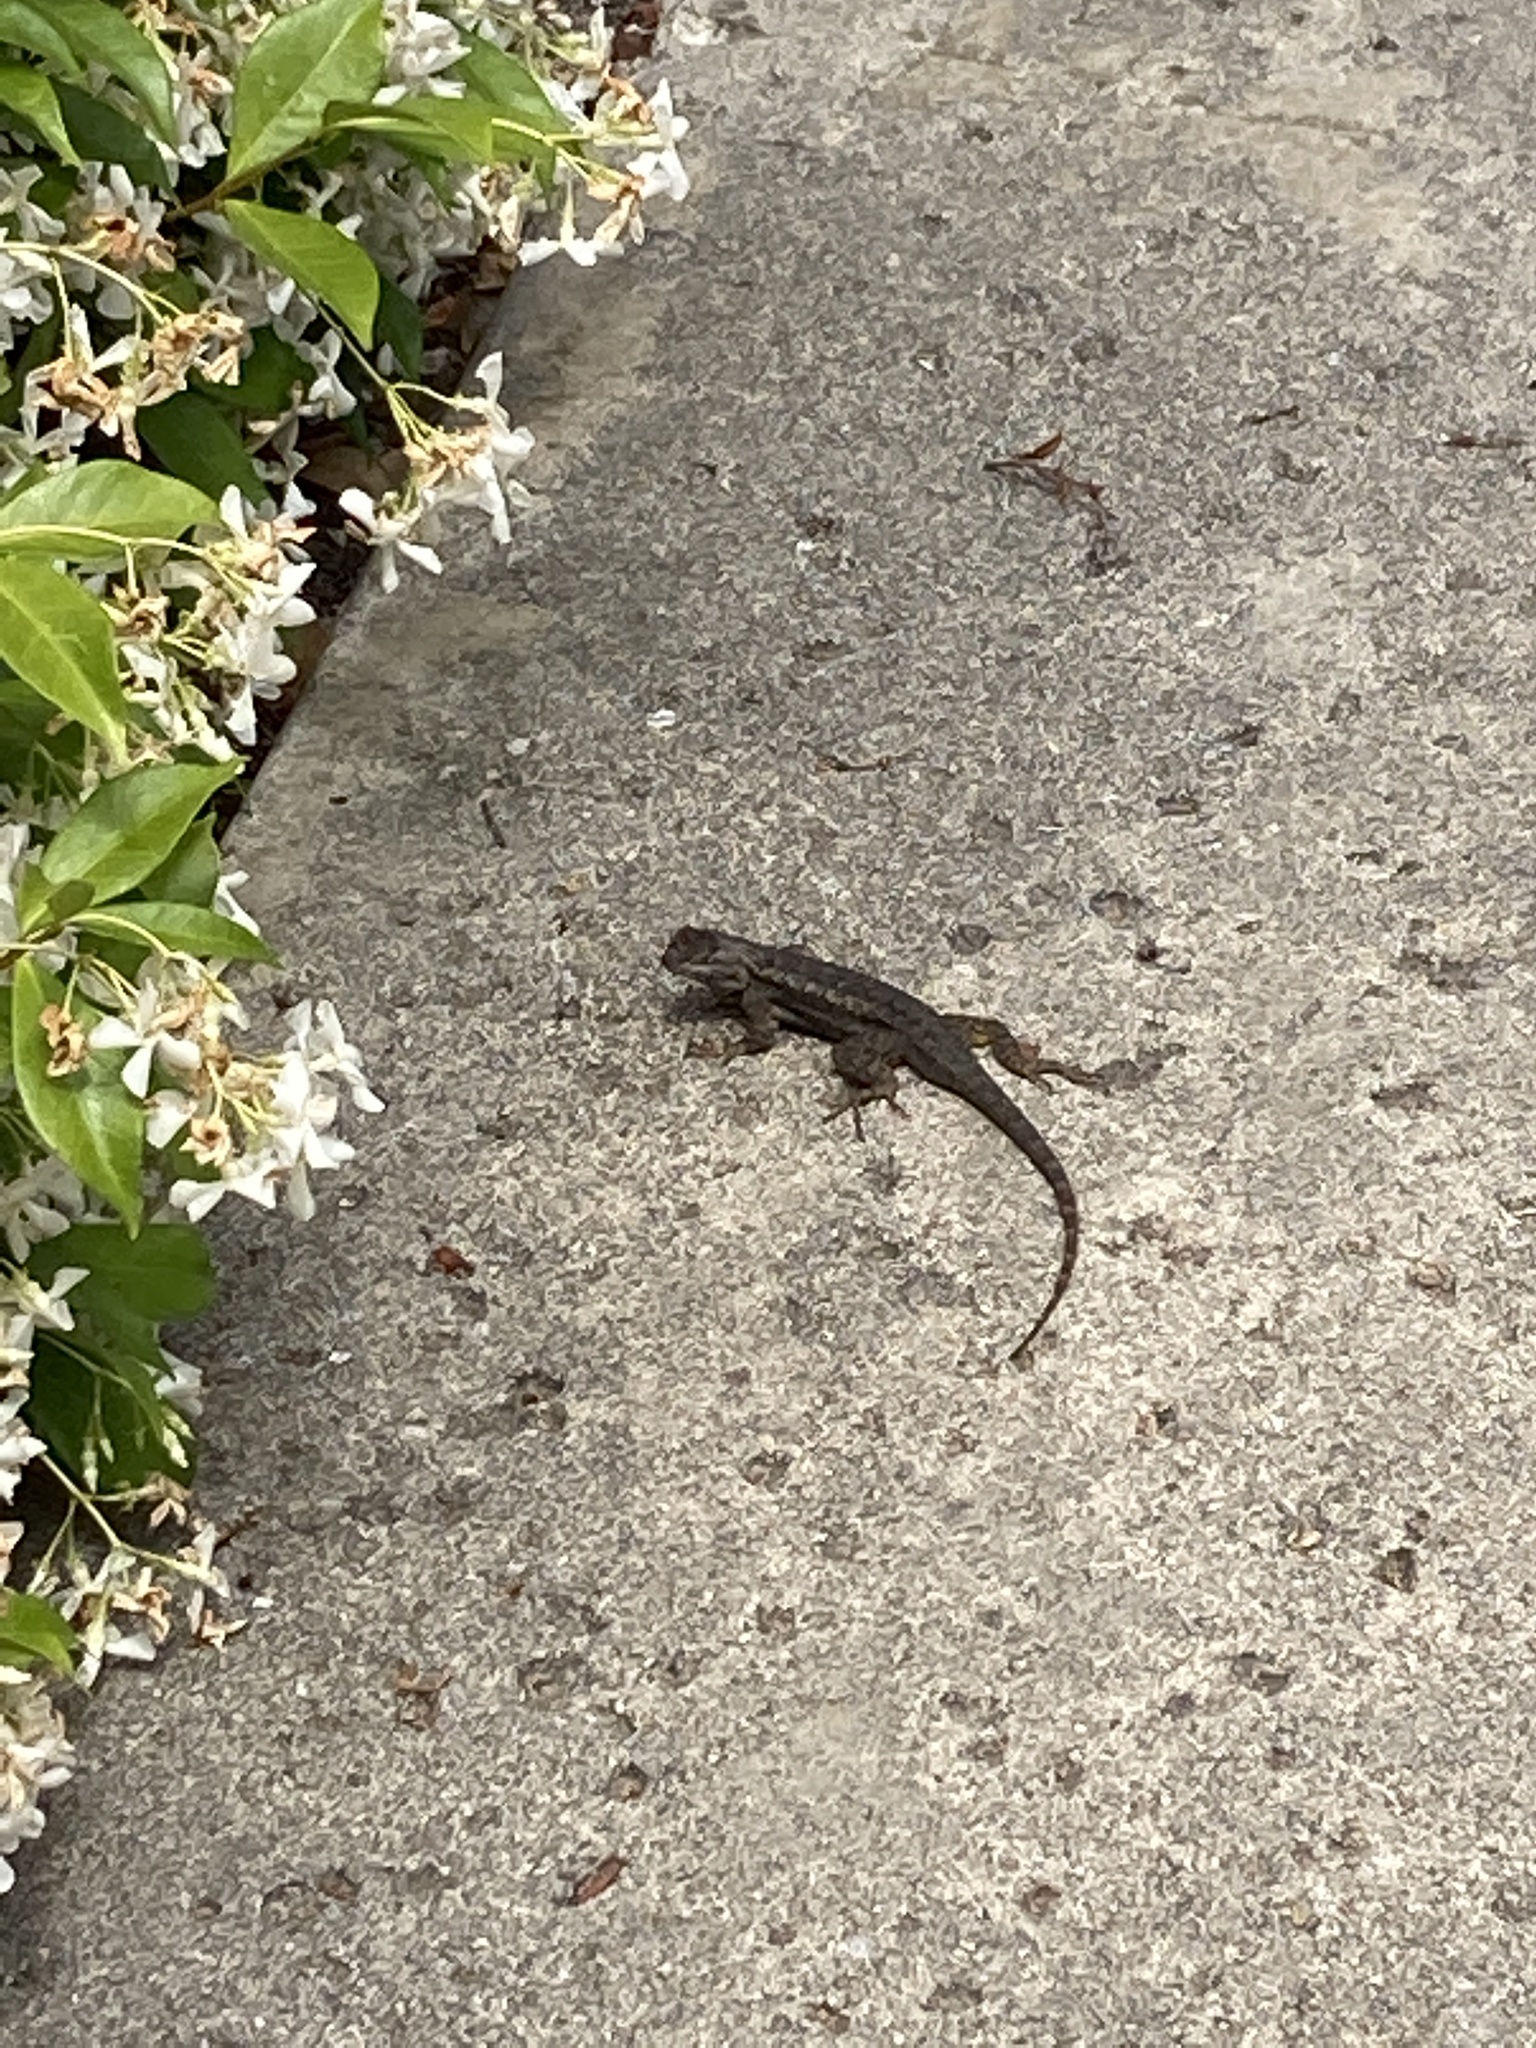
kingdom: Animalia
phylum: Chordata
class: Squamata
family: Phrynosomatidae
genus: Sceloporus
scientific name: Sceloporus occidentalis
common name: Western fence lizard
